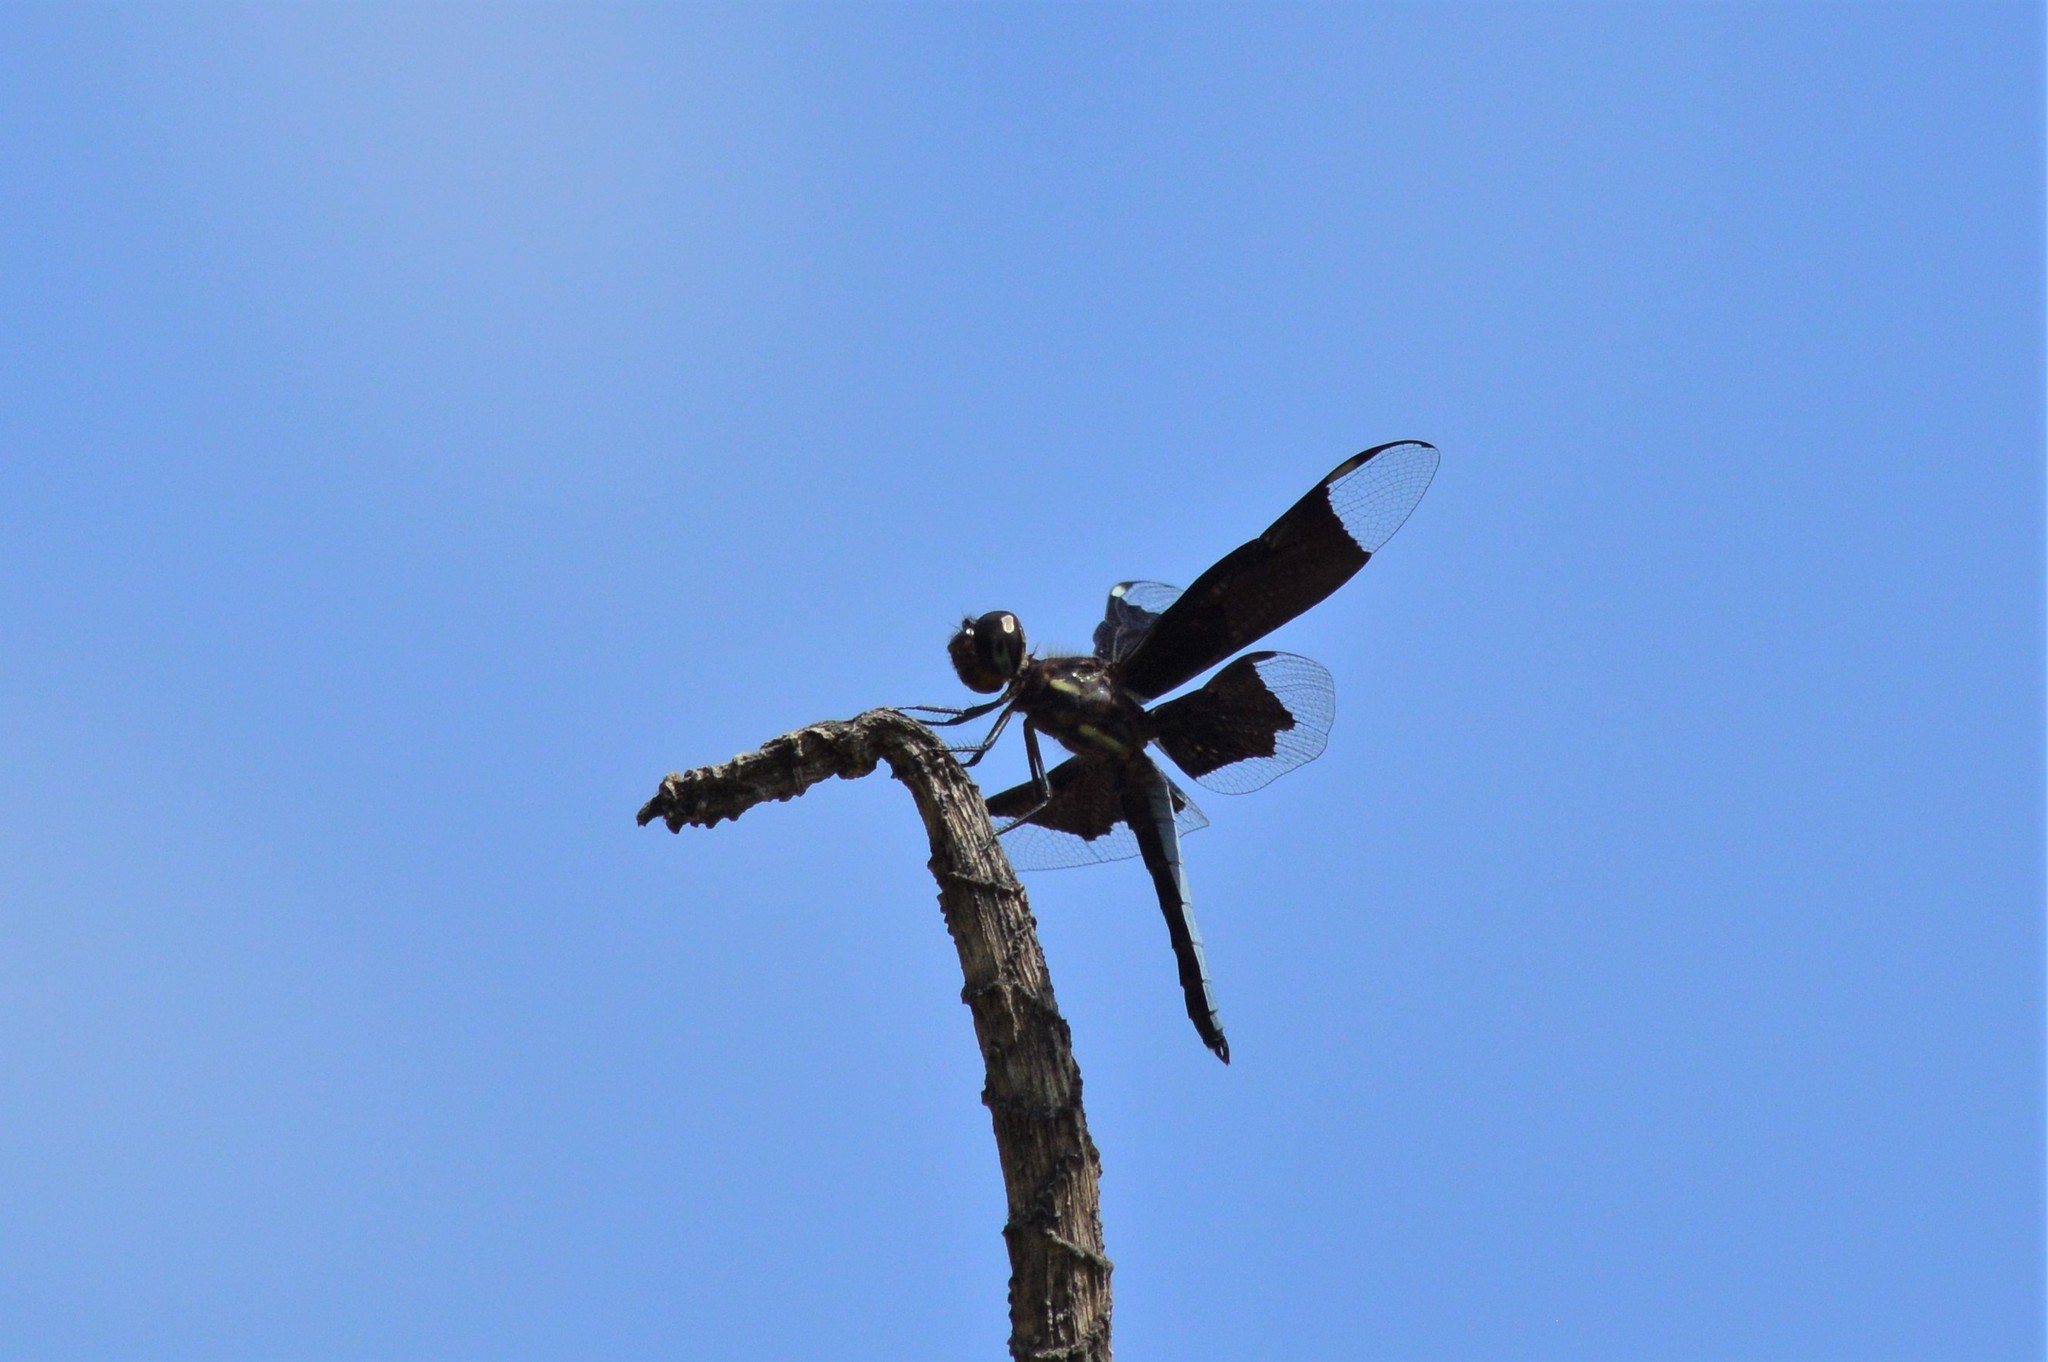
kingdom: Animalia
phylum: Arthropoda
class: Insecta
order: Odonata
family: Libellulidae
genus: Palpopleura
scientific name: Palpopleura lucia
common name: Lucia widow
